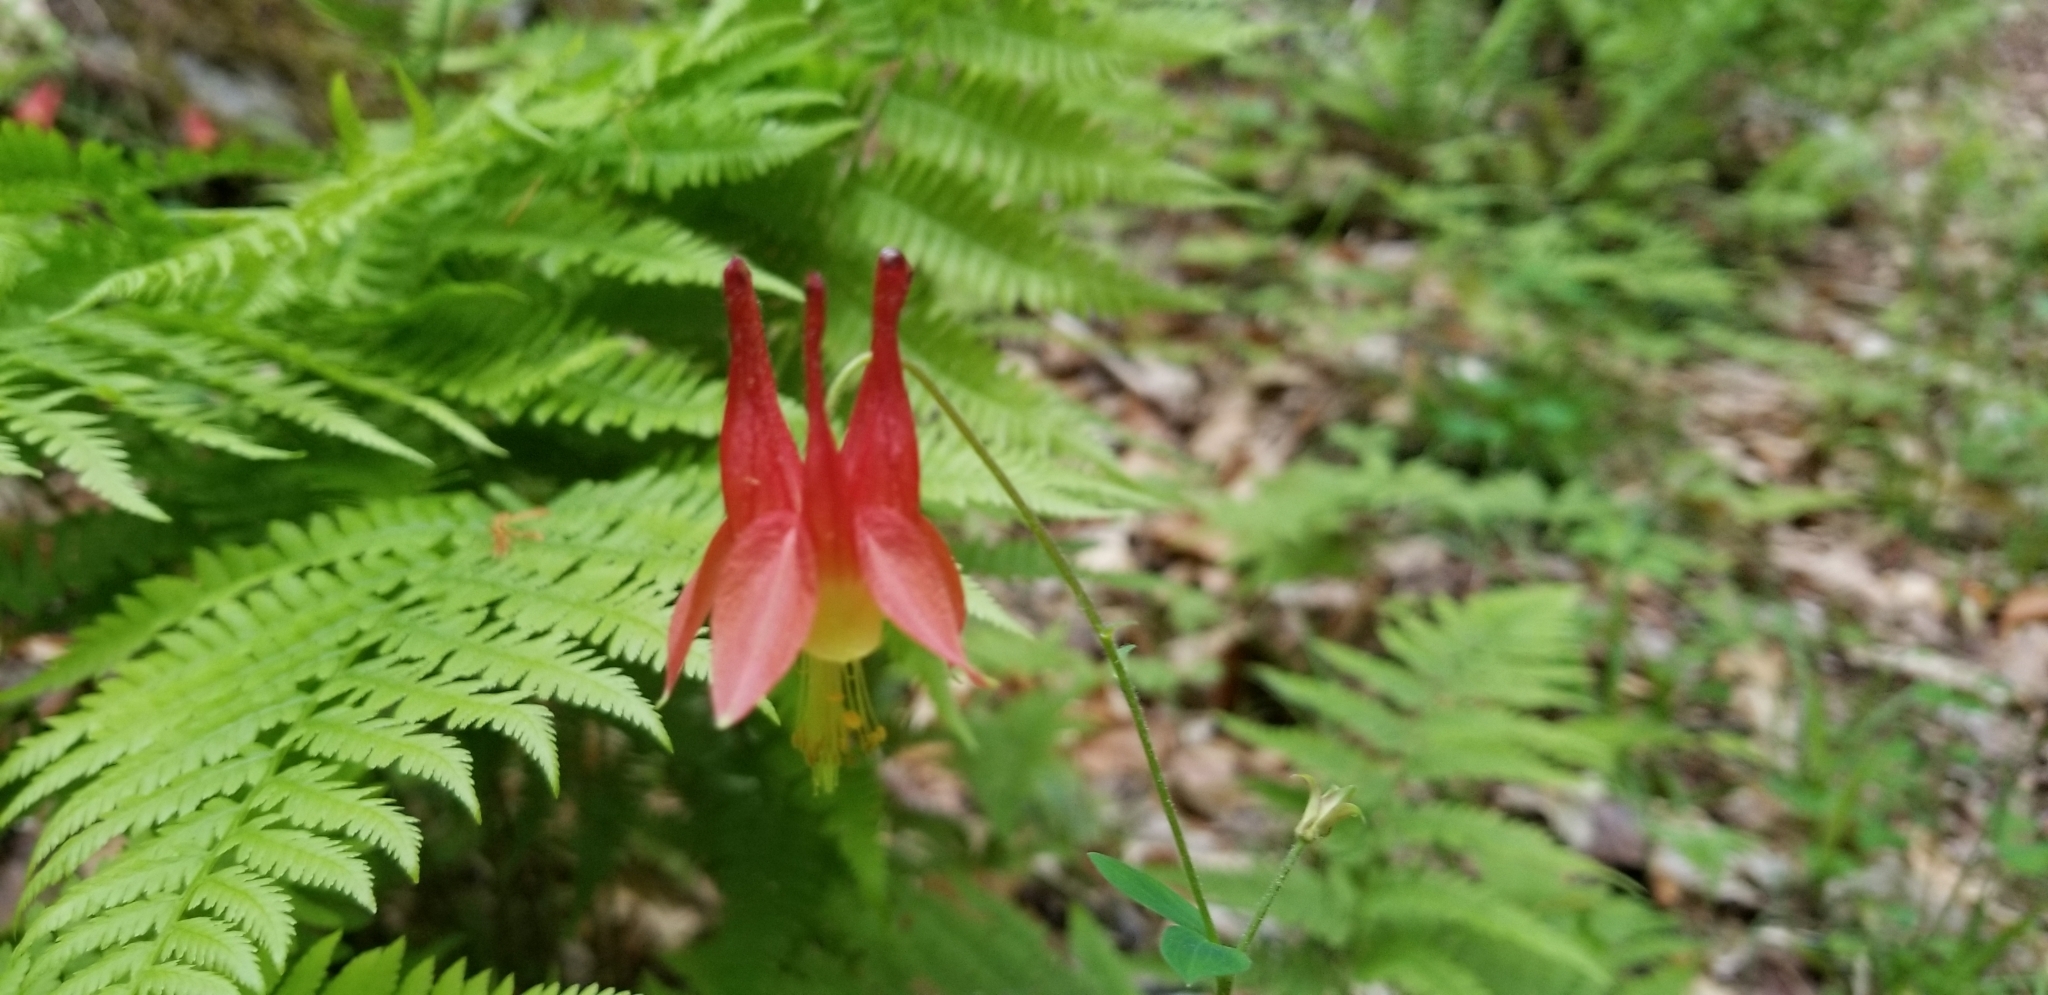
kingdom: Plantae
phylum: Tracheophyta
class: Magnoliopsida
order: Ranunculales
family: Ranunculaceae
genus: Aquilegia
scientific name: Aquilegia canadensis
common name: American columbine
